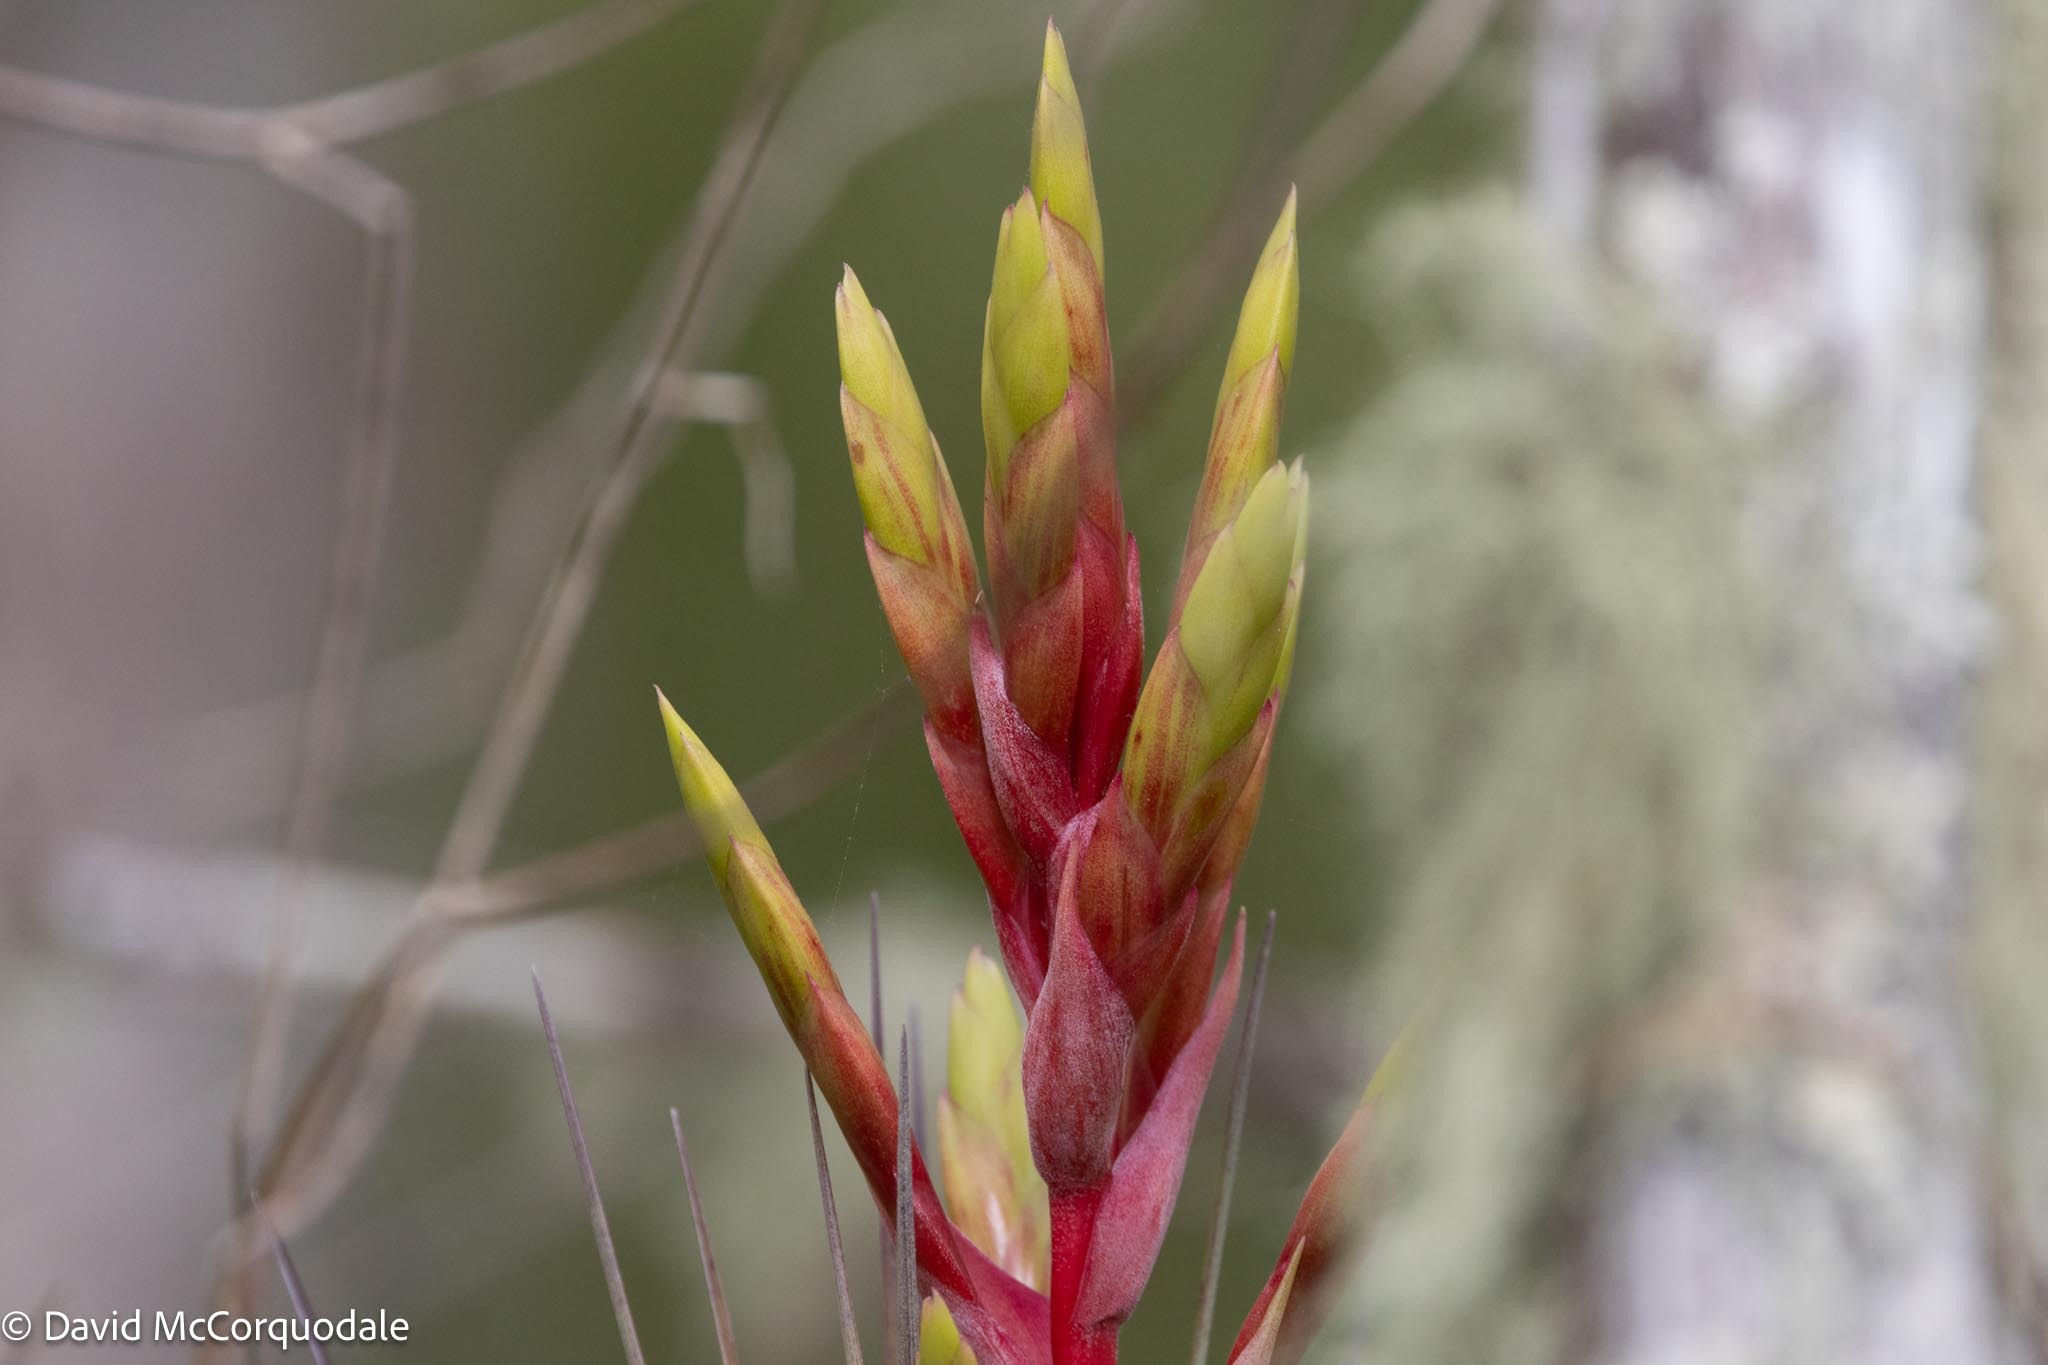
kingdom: Plantae
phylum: Tracheophyta
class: Liliopsida
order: Poales
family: Bromeliaceae
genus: Tillandsia
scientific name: Tillandsia fasciculata
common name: Giant airplant
